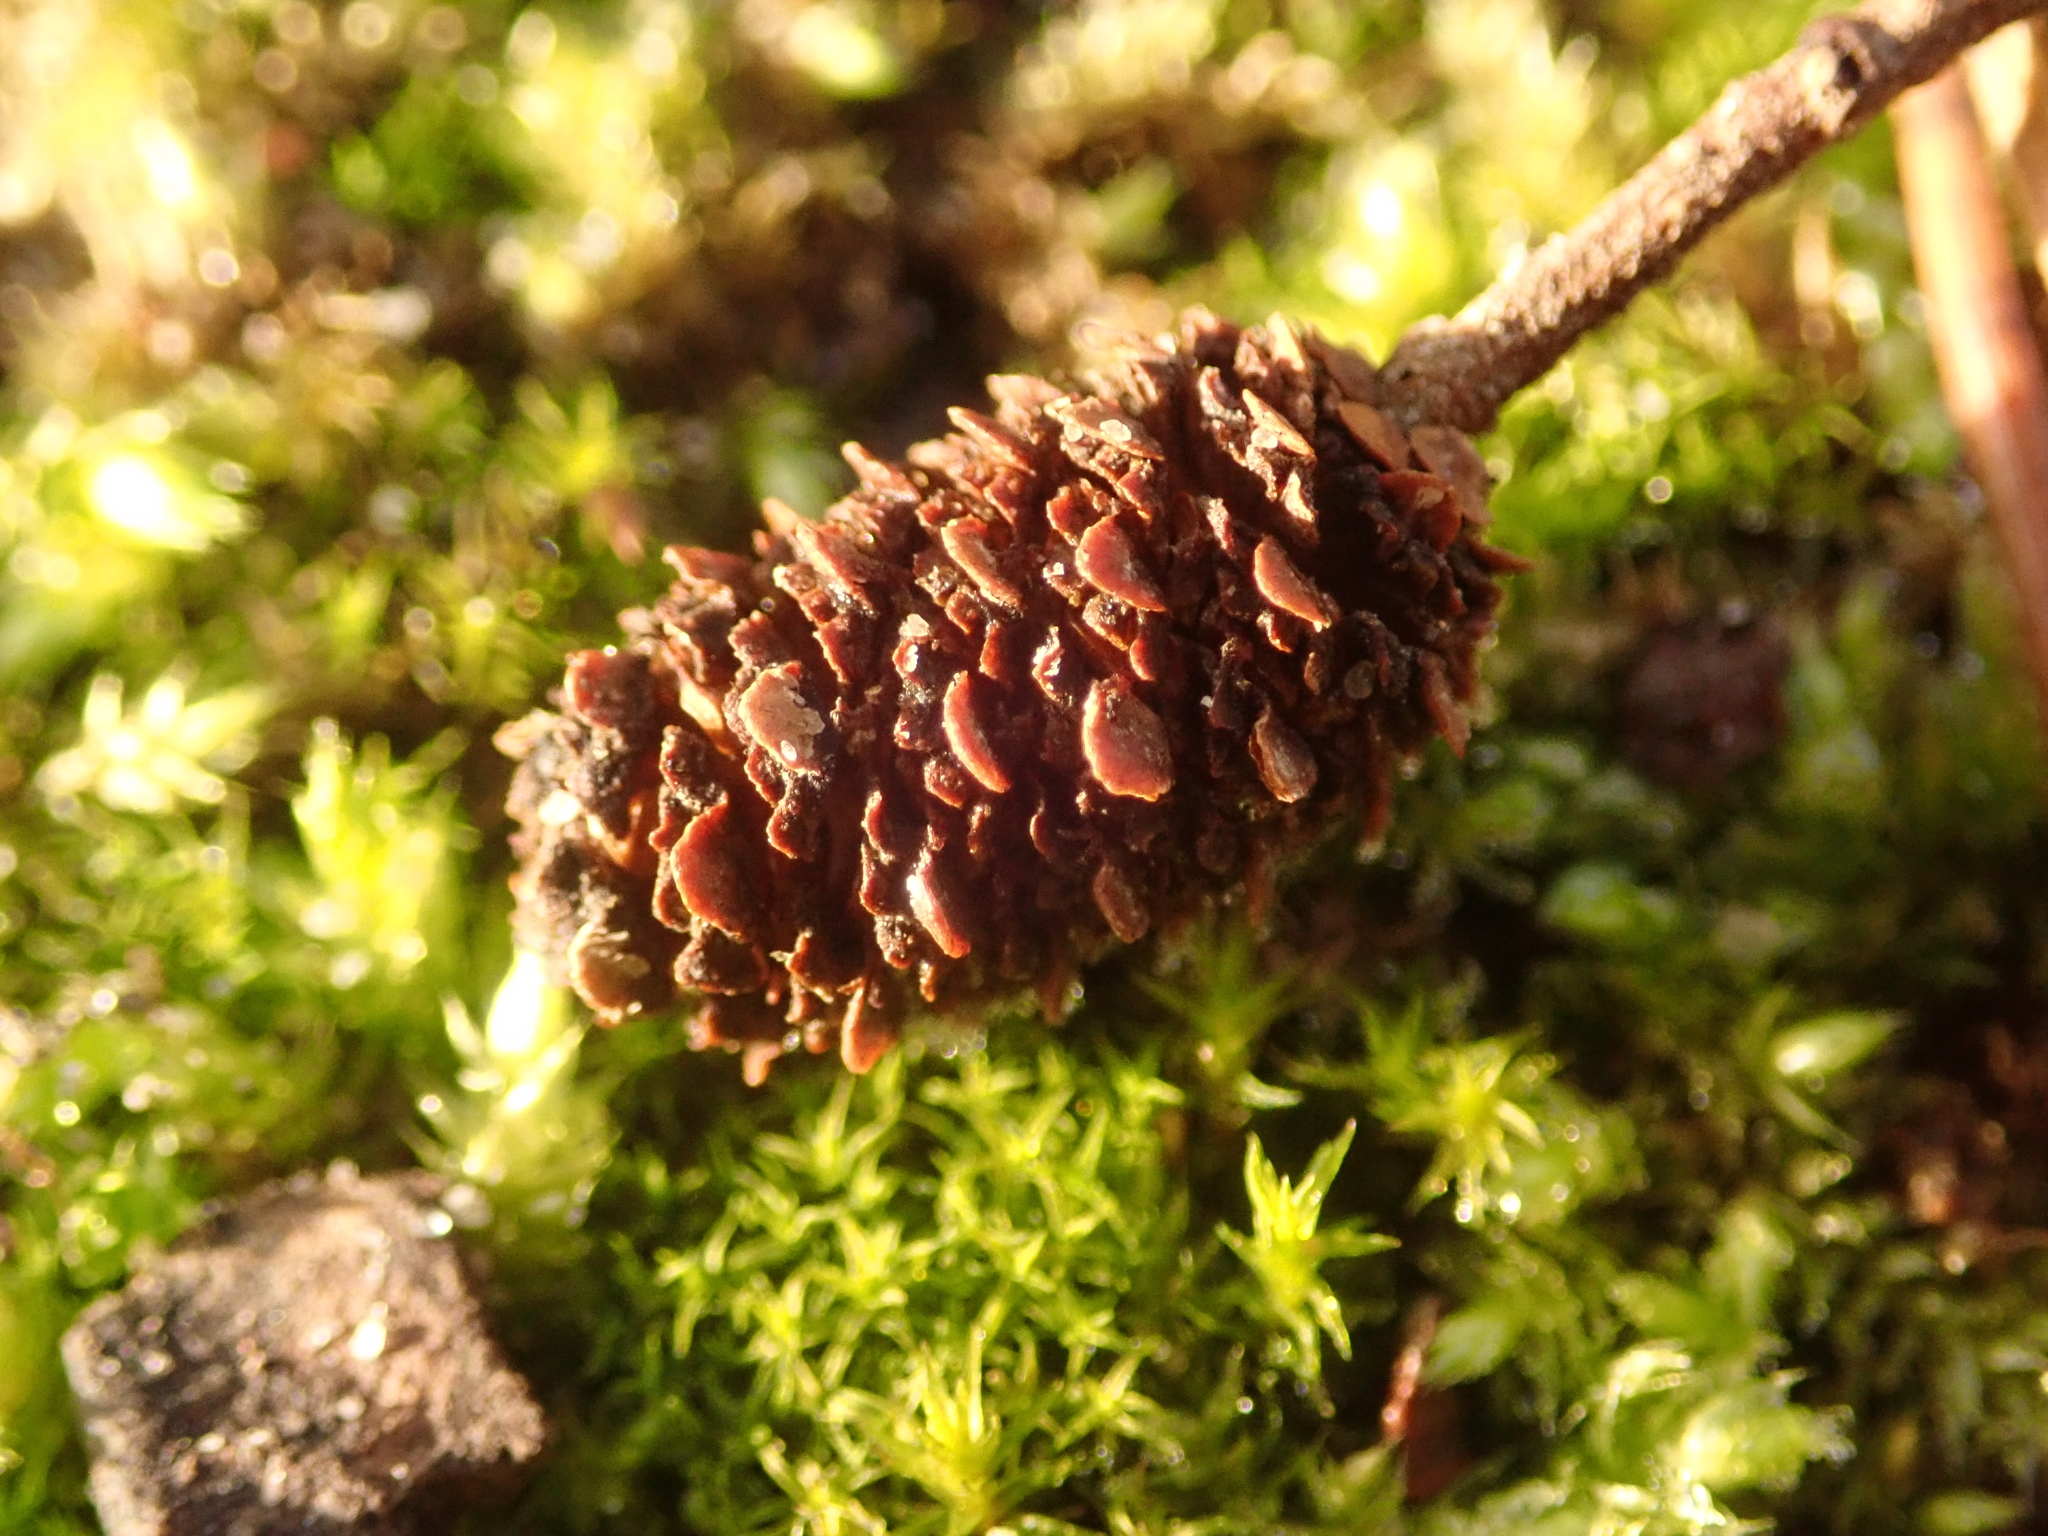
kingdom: Plantae
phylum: Tracheophyta
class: Magnoliopsida
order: Fagales
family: Betulaceae
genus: Alnus
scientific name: Alnus glutinosa
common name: Black alder
